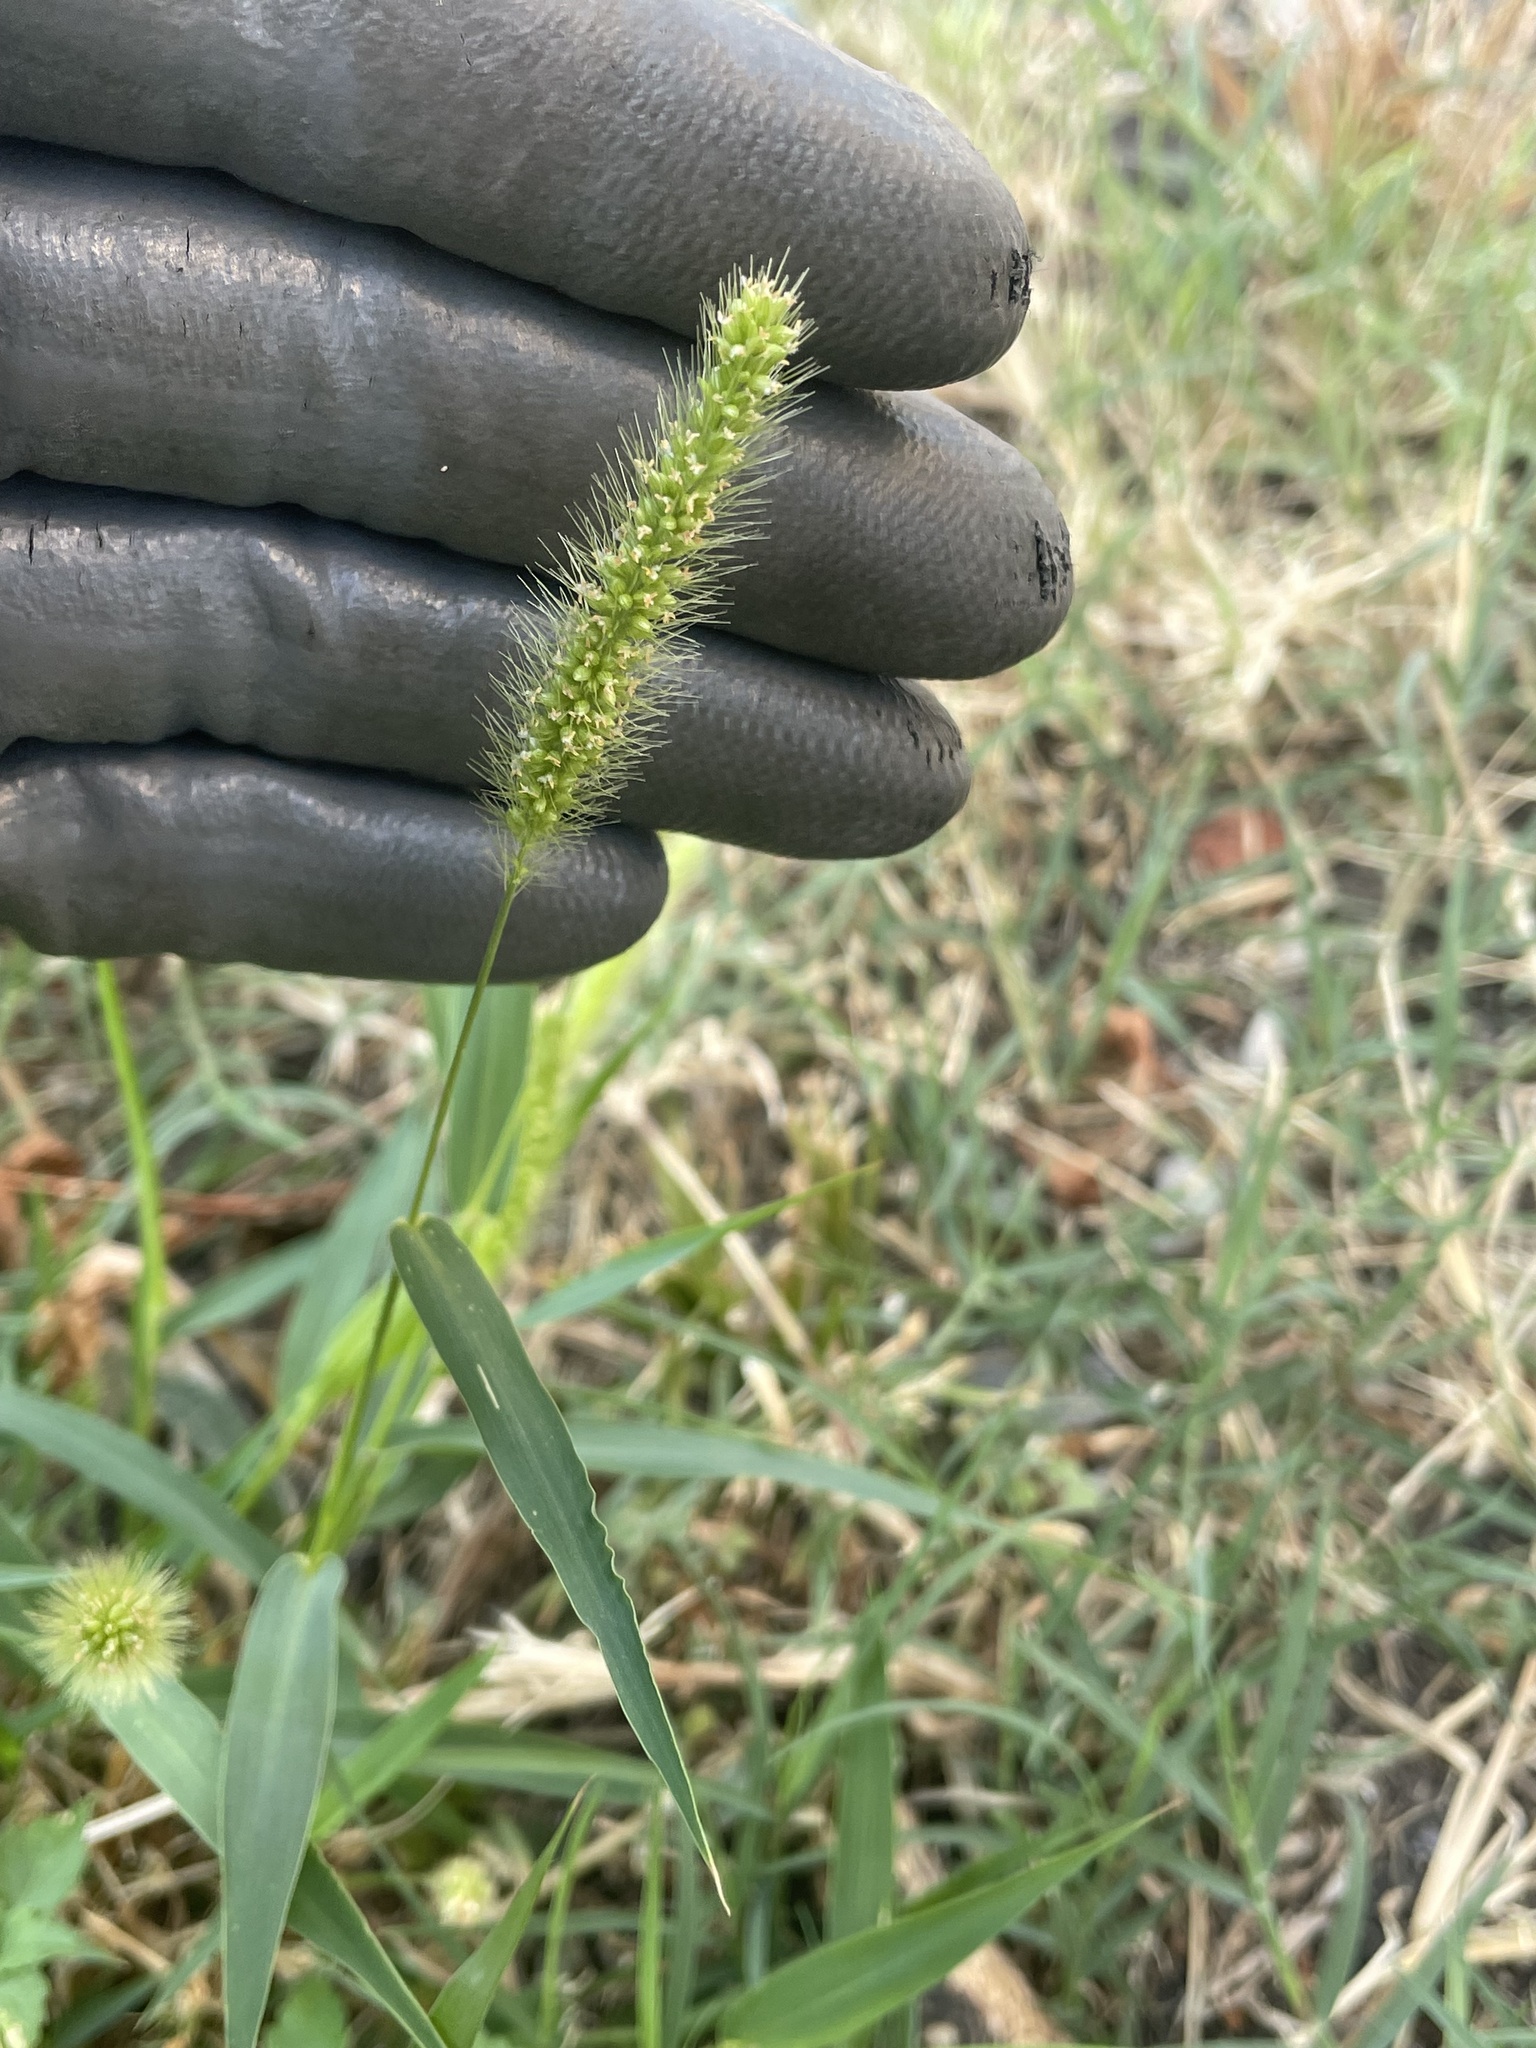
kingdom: Plantae
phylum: Tracheophyta
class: Liliopsida
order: Poales
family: Poaceae
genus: Setaria
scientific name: Setaria viridis
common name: Green bristlegrass
